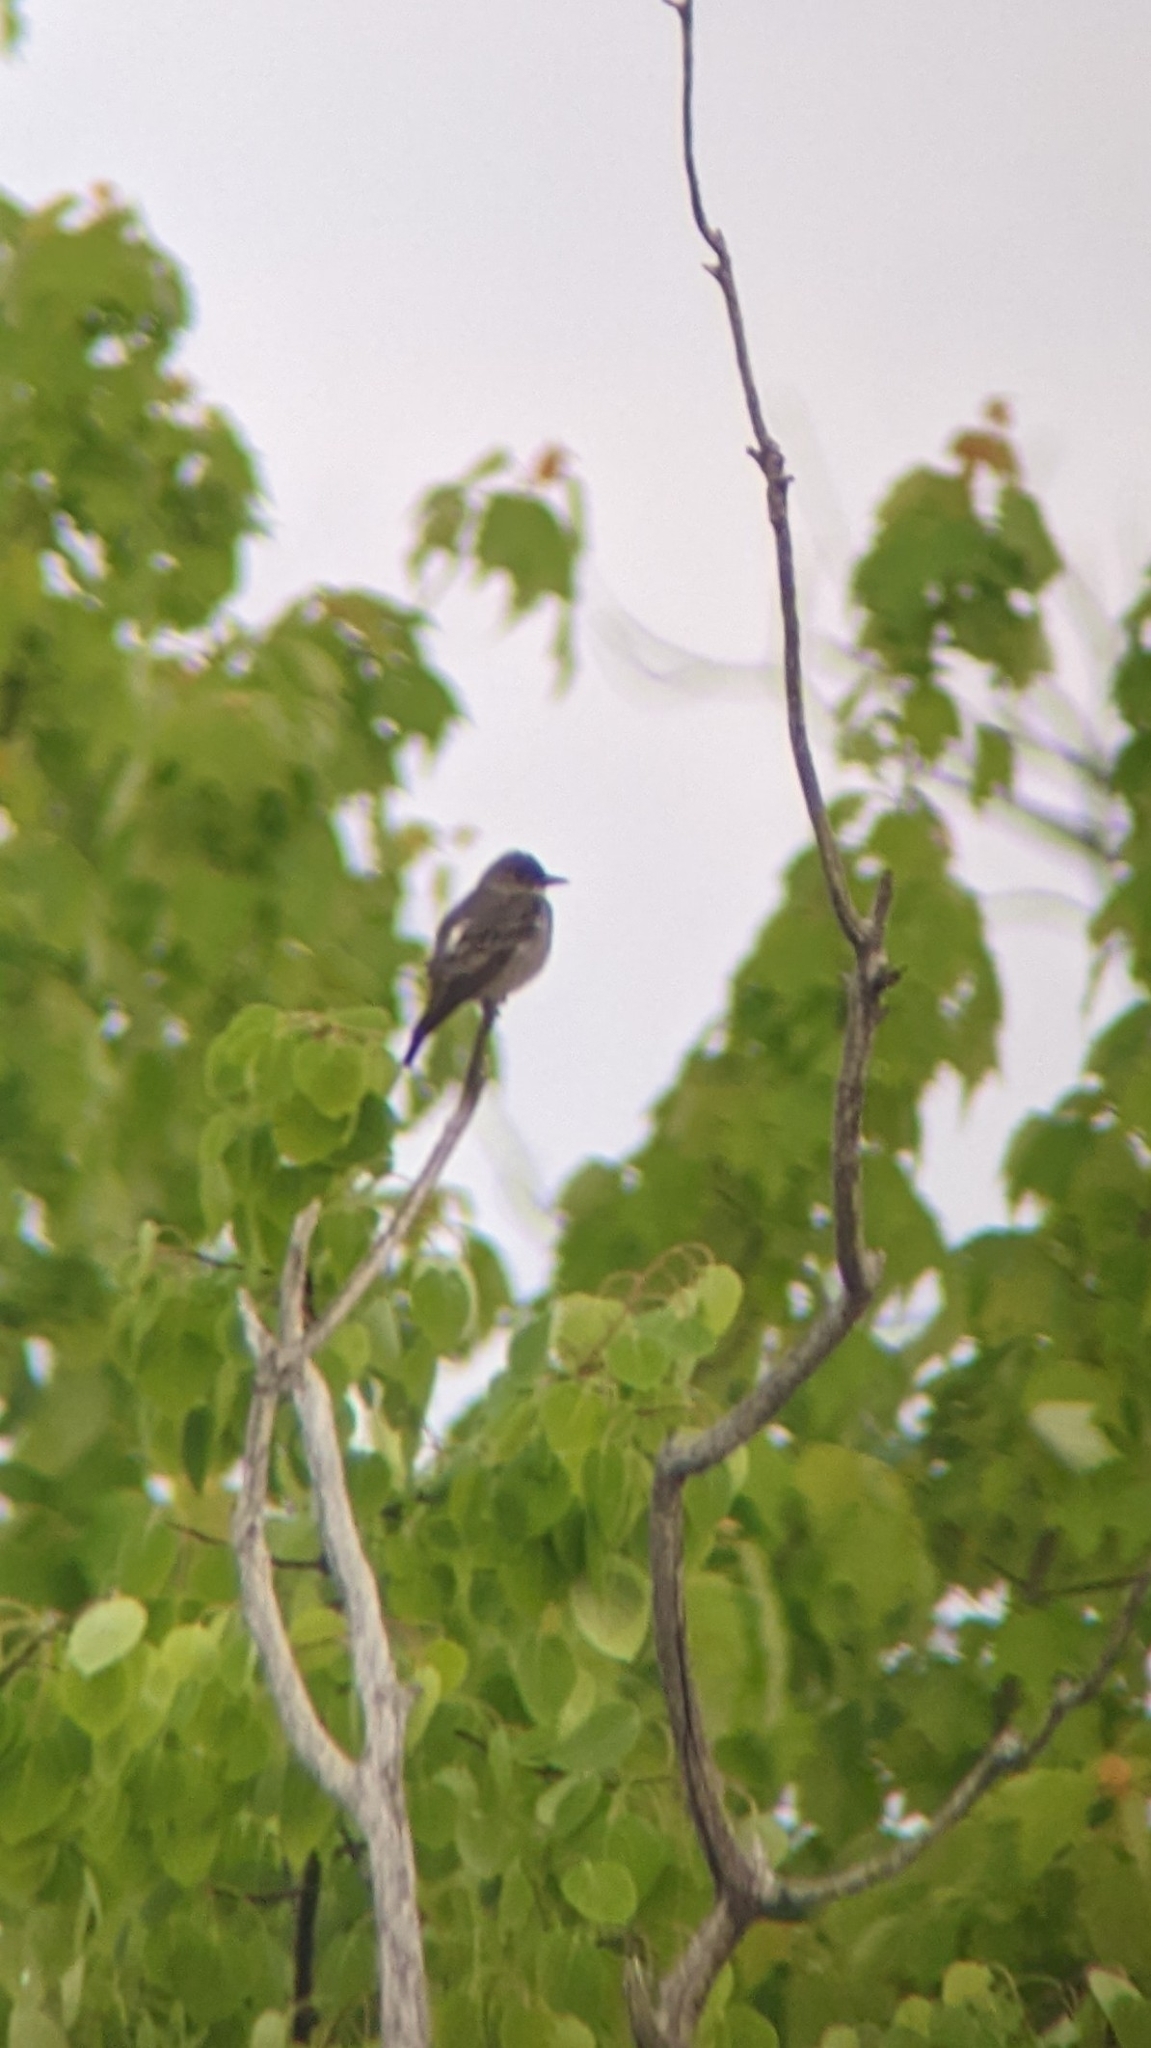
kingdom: Animalia
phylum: Chordata
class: Aves
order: Passeriformes
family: Tyrannidae
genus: Contopus
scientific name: Contopus cooperi
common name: Olive-sided flycatcher
